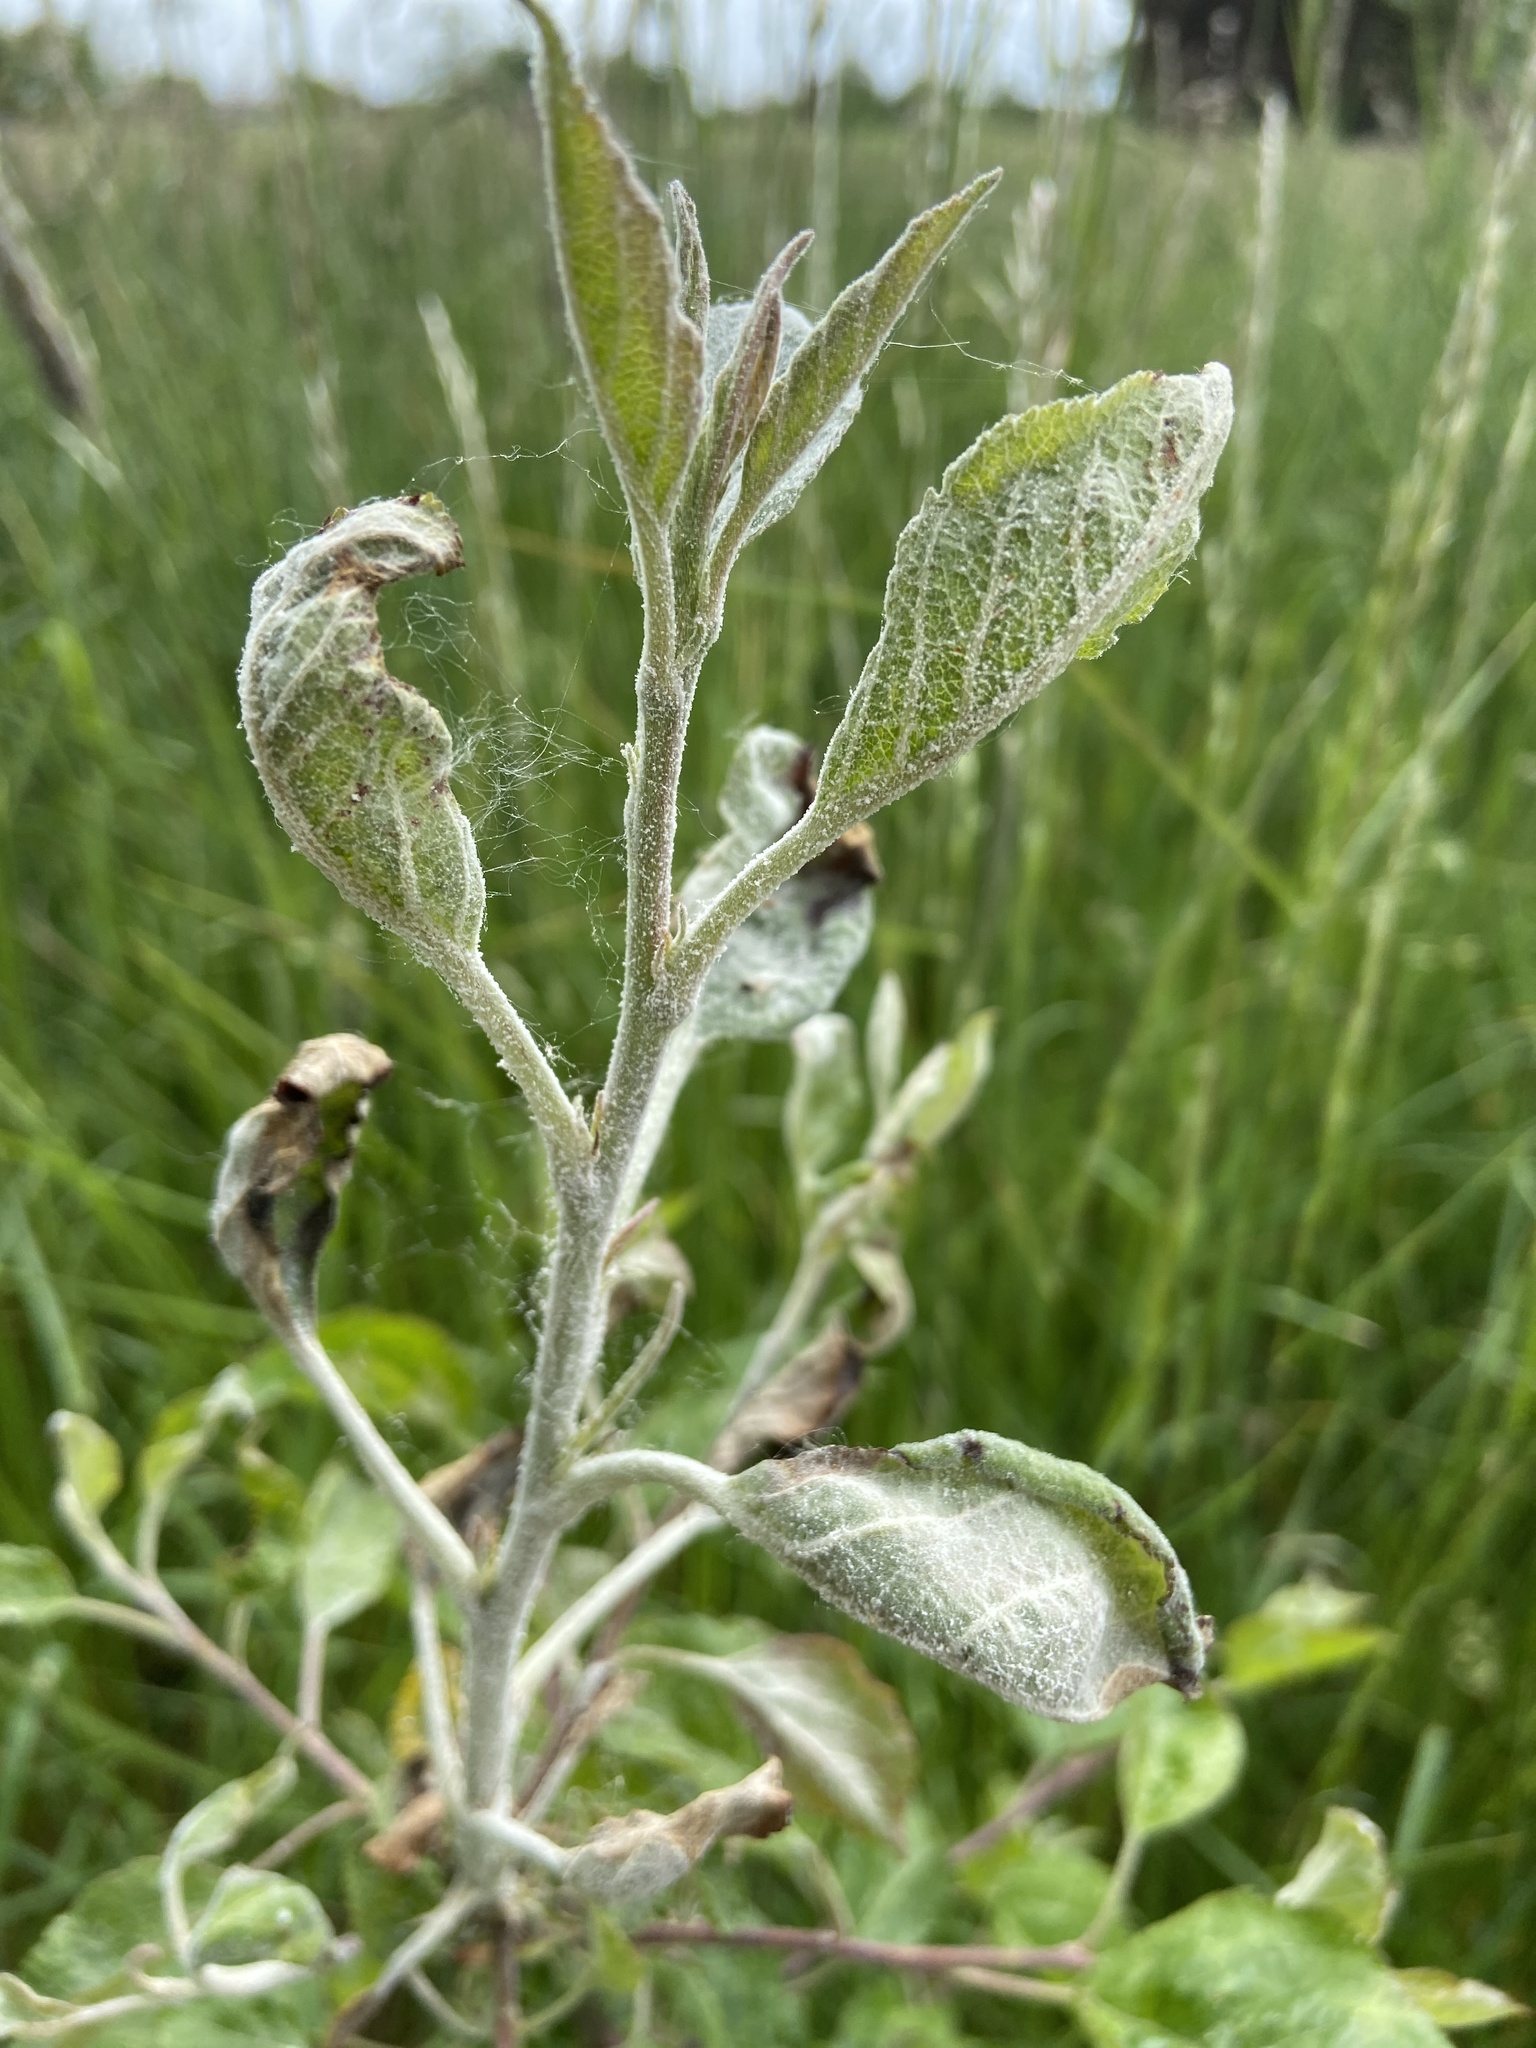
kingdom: Plantae
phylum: Tracheophyta
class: Magnoliopsida
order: Rosales
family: Rosaceae
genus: Malus
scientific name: Malus domestica
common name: Apple
